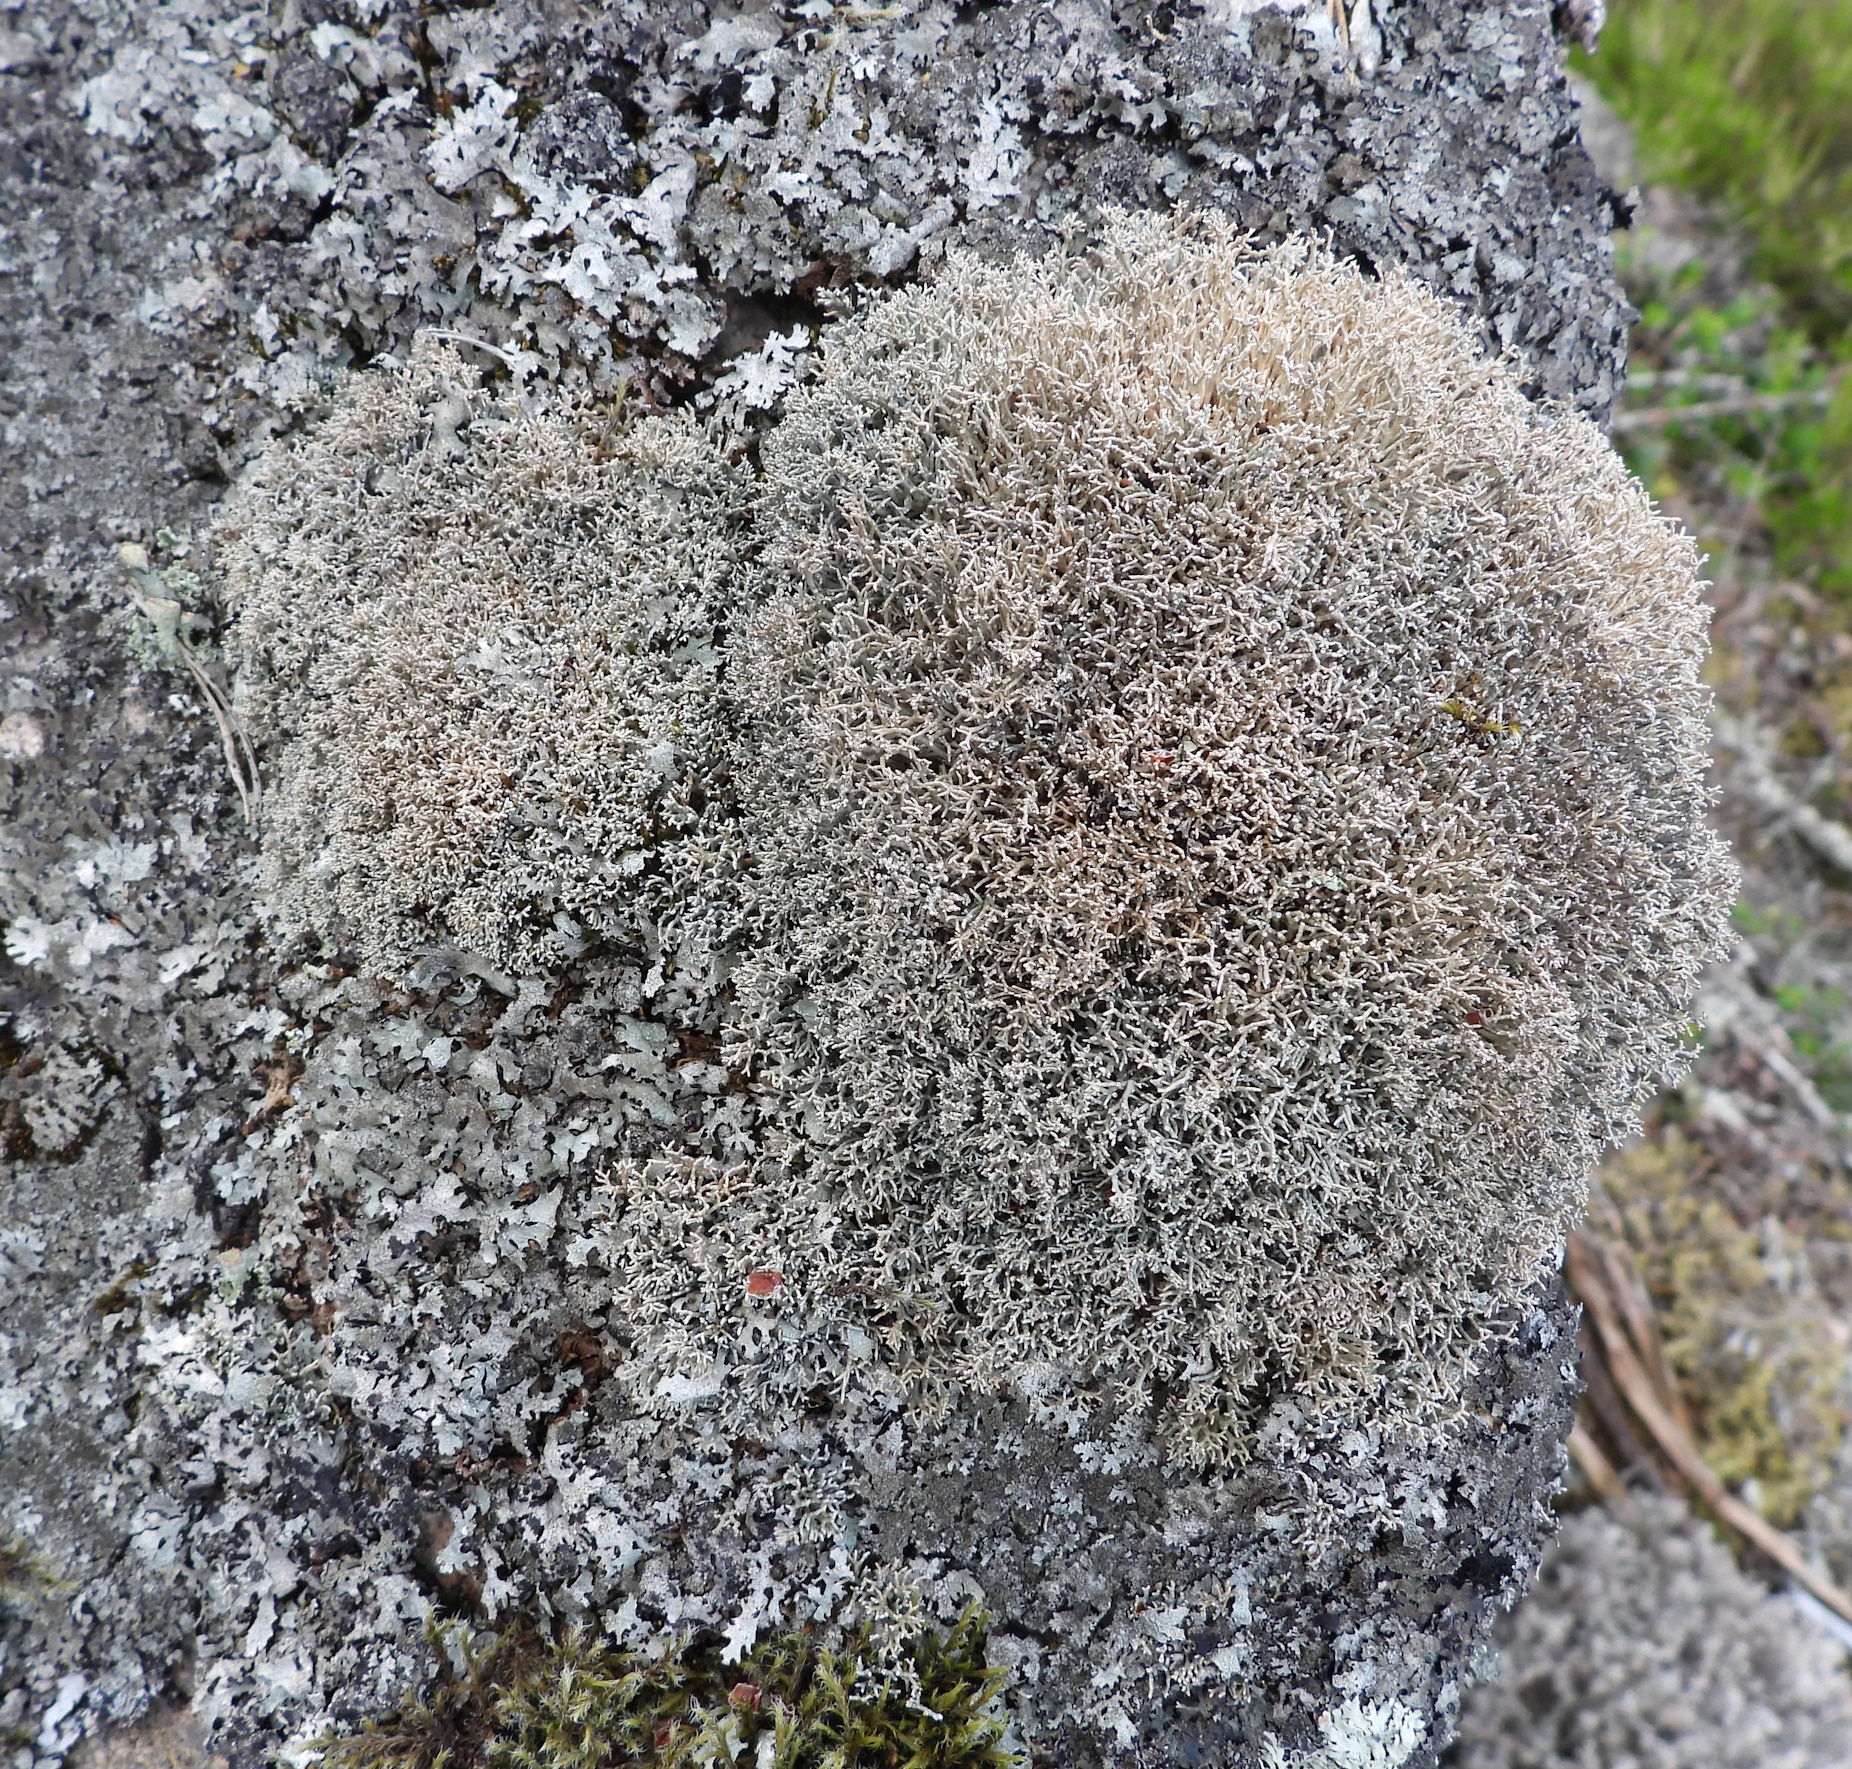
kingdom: Fungi
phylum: Ascomycota
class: Lecanoromycetes
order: Lecanorales
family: Sphaerophoraceae
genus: Sphaerophorus
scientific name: Sphaerophorus fragilis
